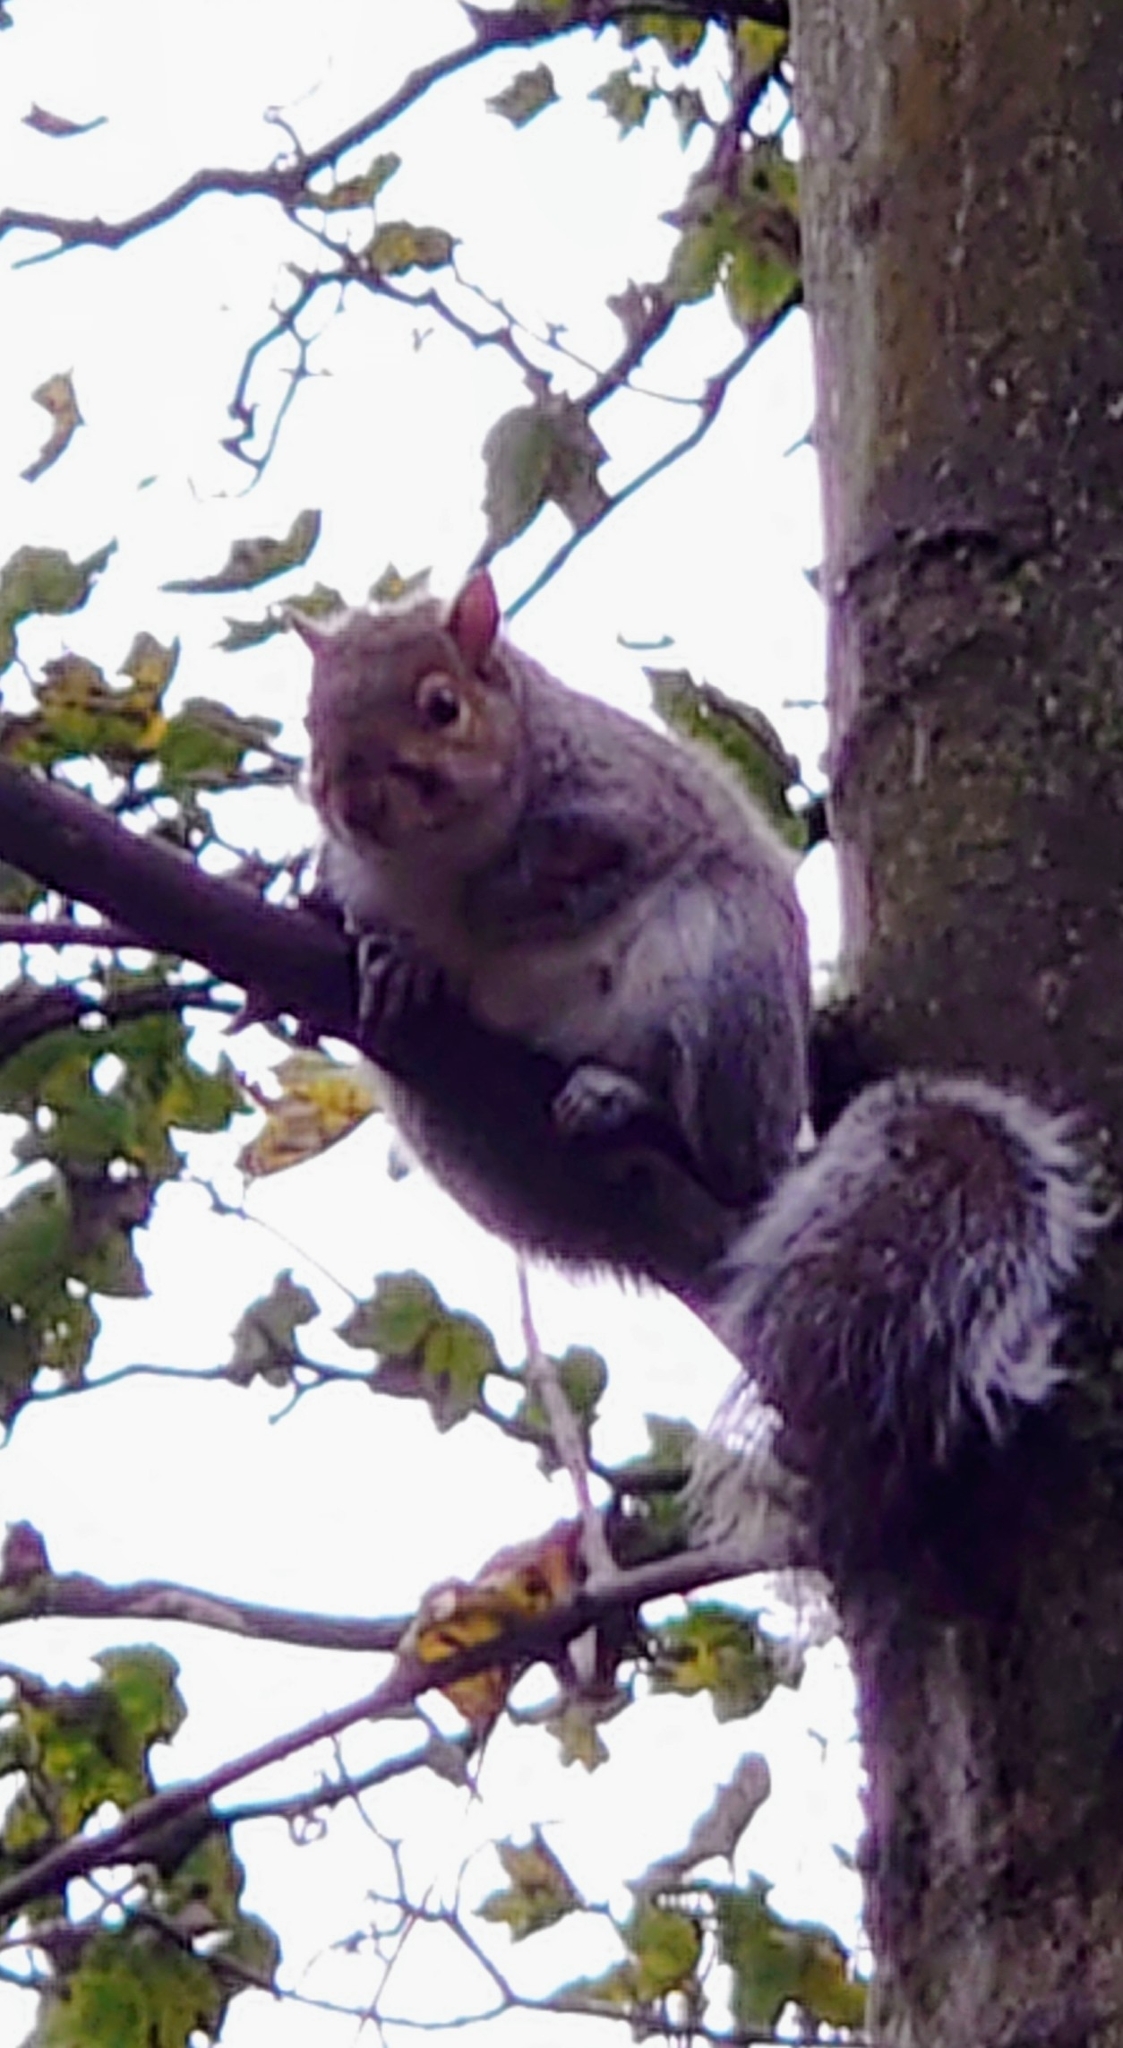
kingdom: Animalia
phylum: Chordata
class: Mammalia
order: Rodentia
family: Sciuridae
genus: Sciurus
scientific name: Sciurus carolinensis
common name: Eastern gray squirrel
